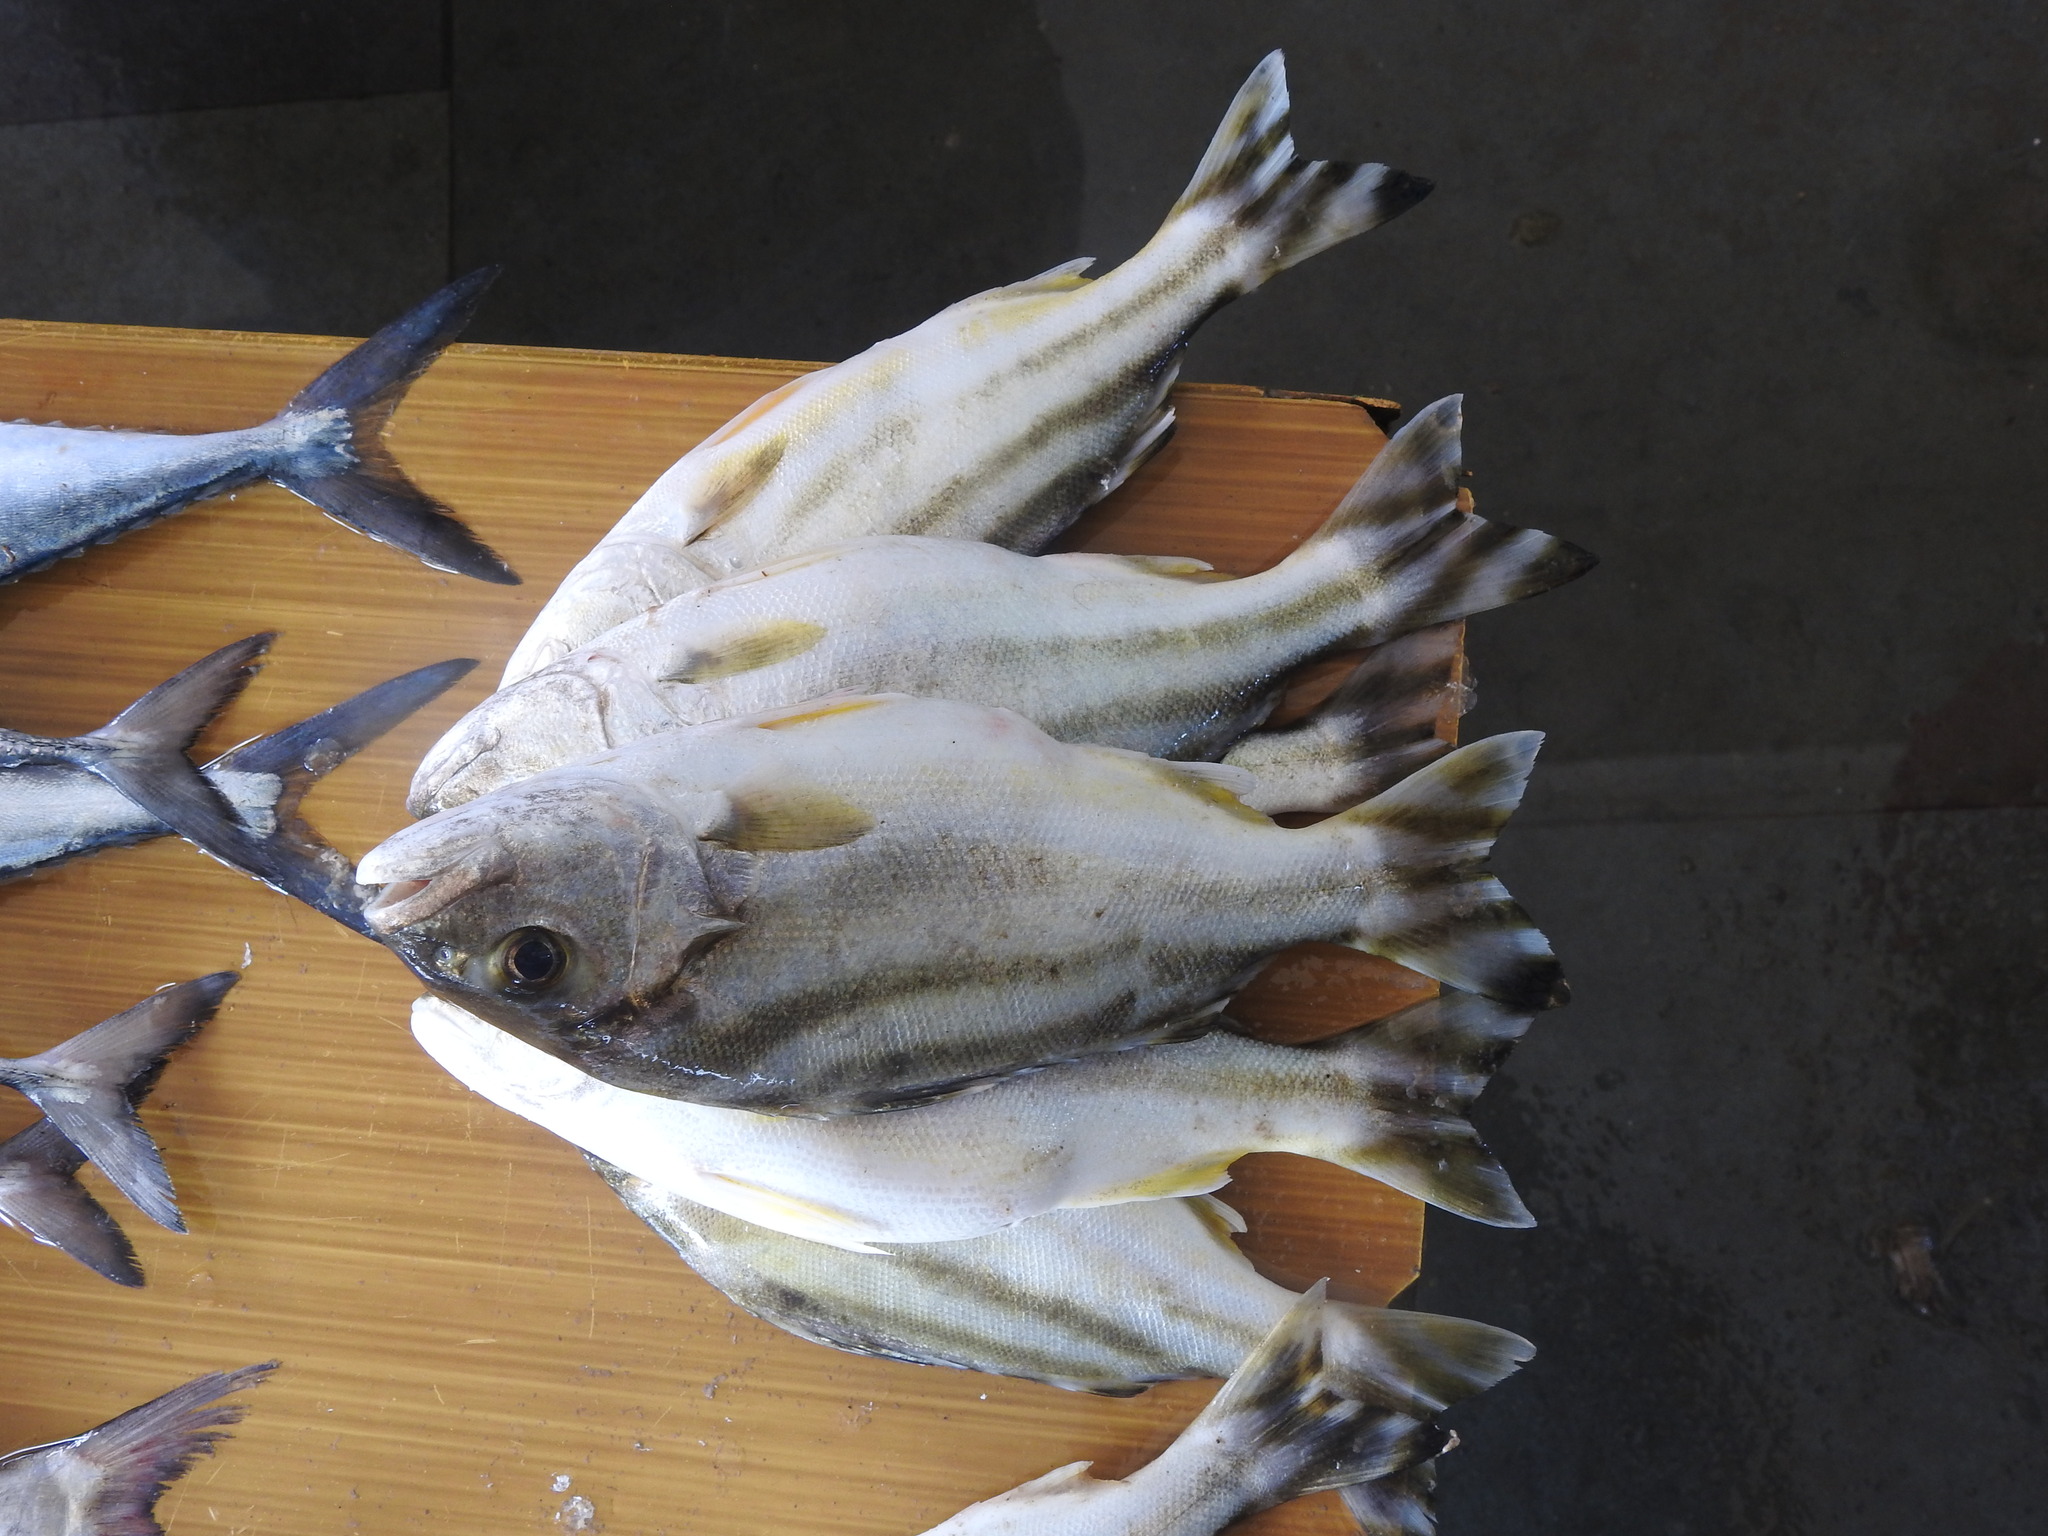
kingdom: Animalia
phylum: Chordata
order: Perciformes
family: Terapontidae
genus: Terapon
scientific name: Terapon jarbua
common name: Jarbua terapon
